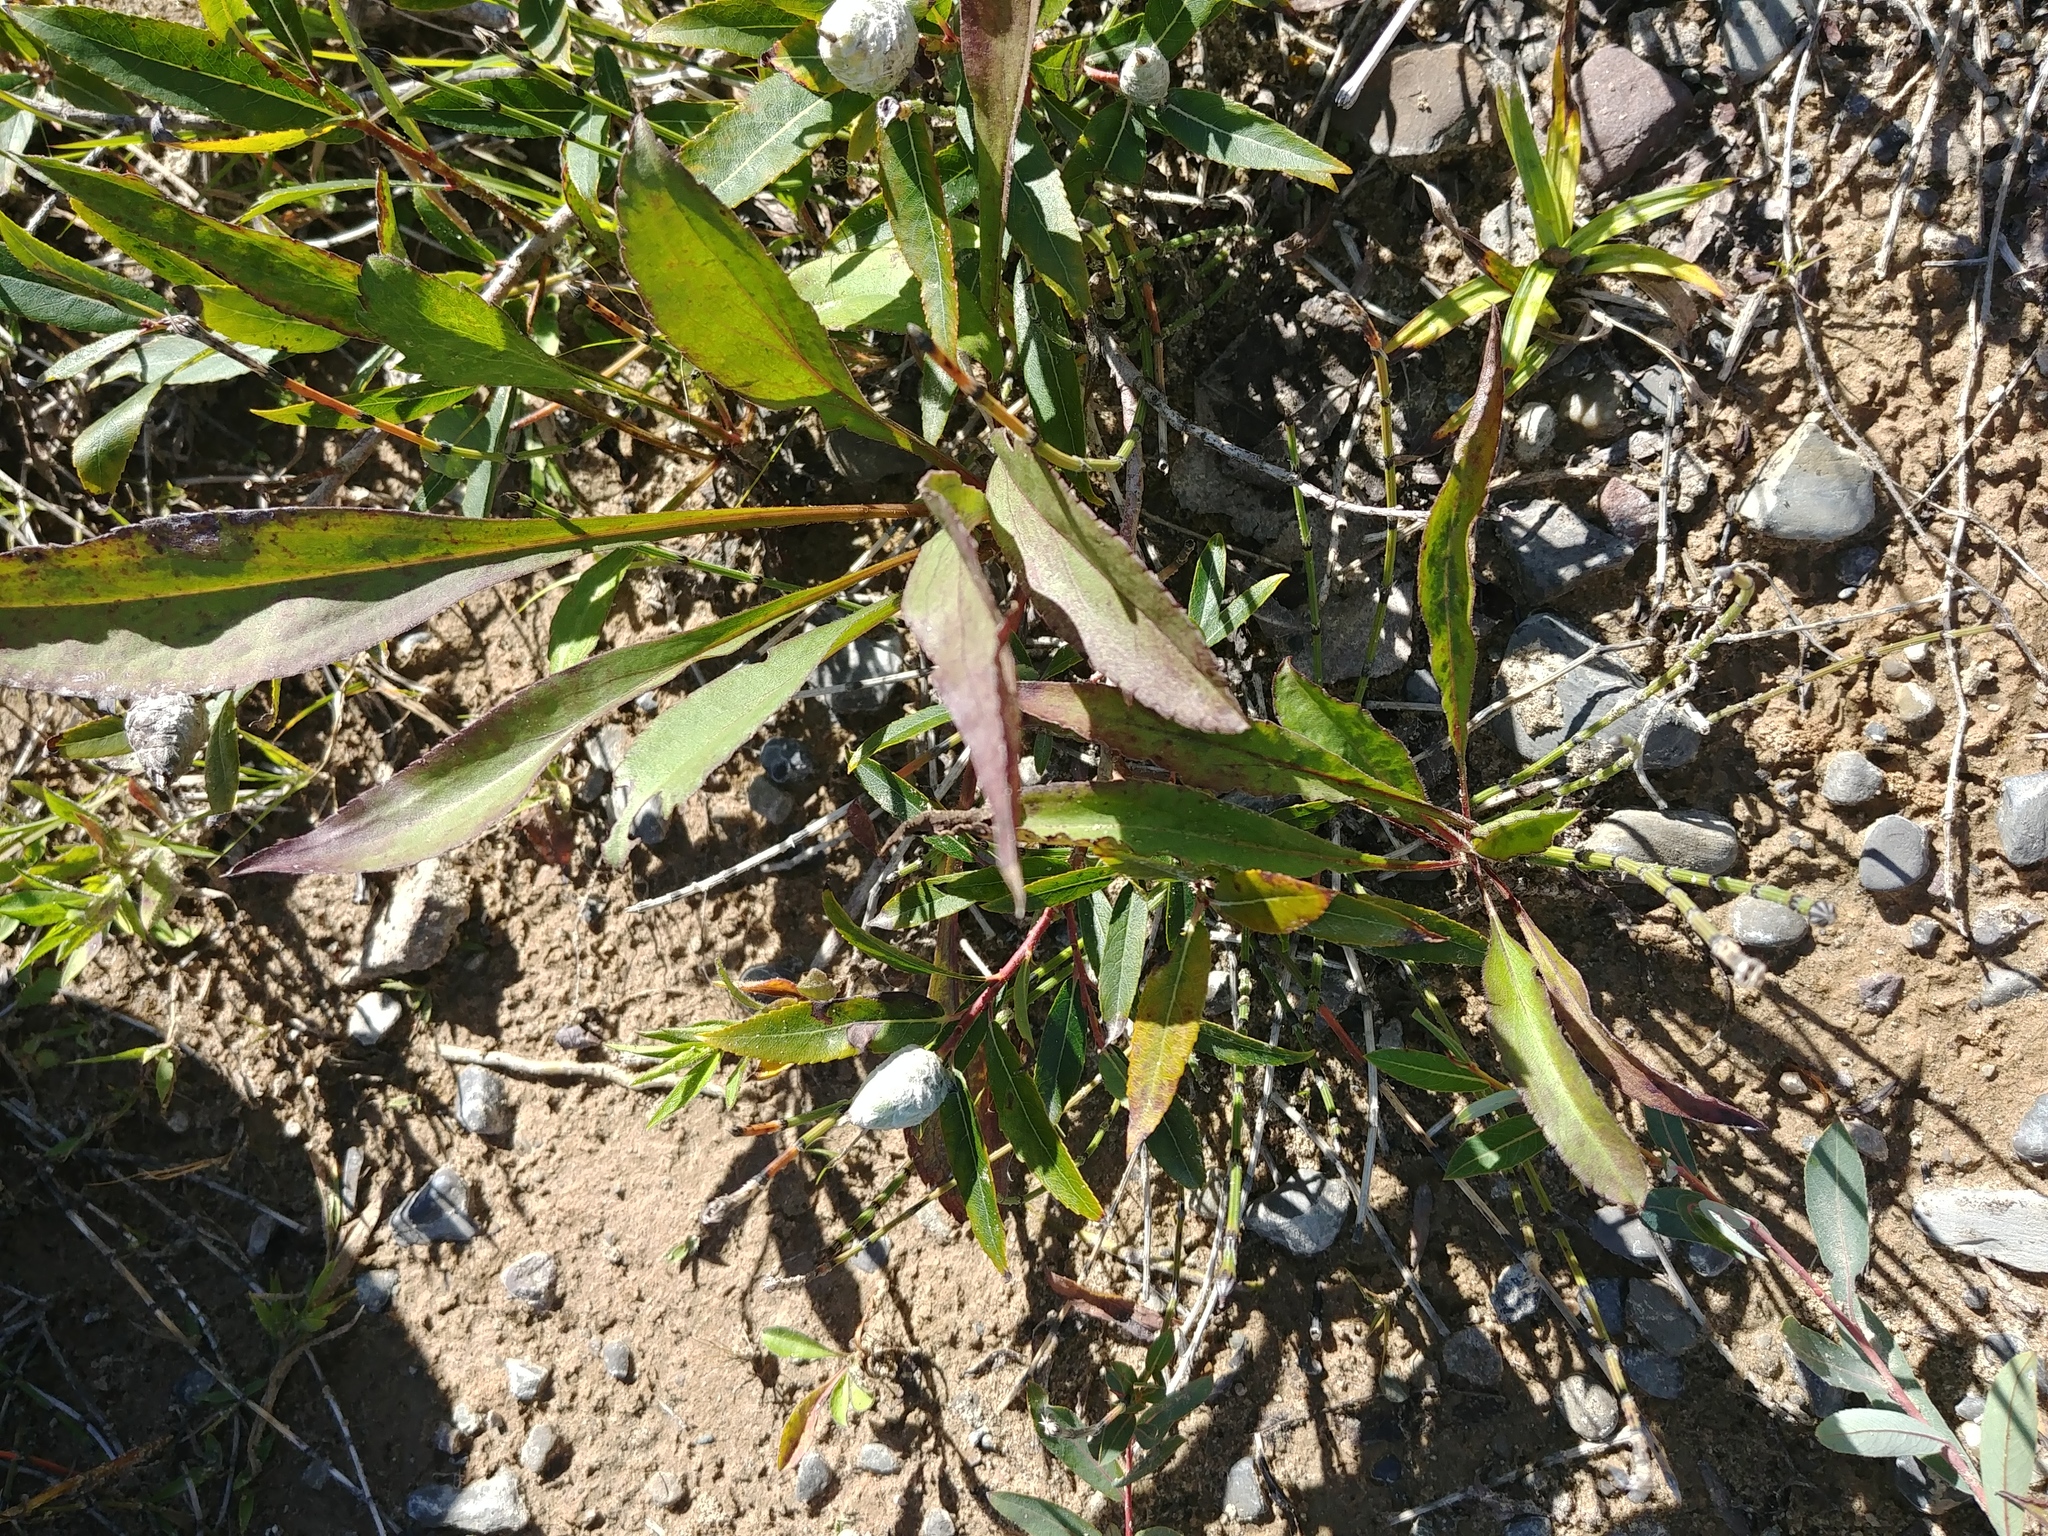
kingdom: Animalia
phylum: Arthropoda
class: Insecta
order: Diptera
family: Cecidomyiidae
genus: Rabdophaga
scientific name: Rabdophaga strobiloides
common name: Willow pinecone gall midge
